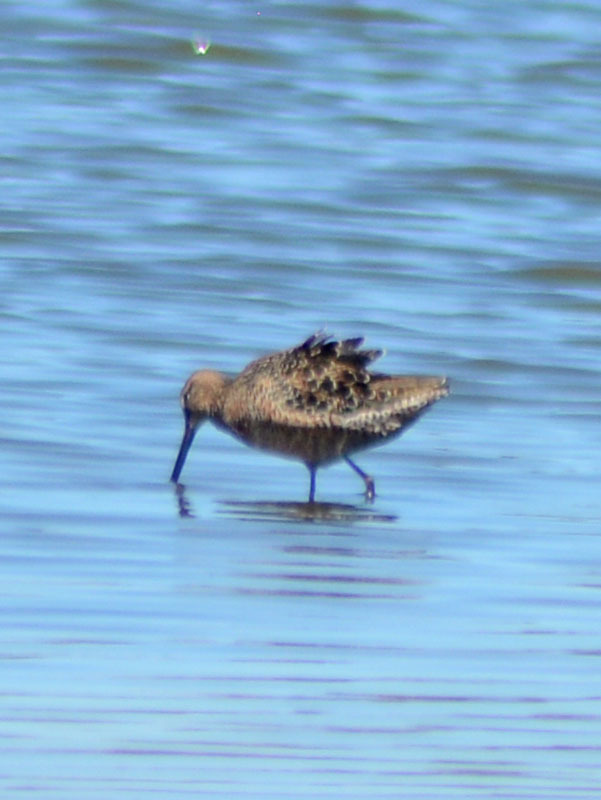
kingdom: Animalia
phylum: Chordata
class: Aves
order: Charadriiformes
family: Scolopacidae
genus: Limnodromus
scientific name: Limnodromus scolopaceus
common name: Long-billed dowitcher
